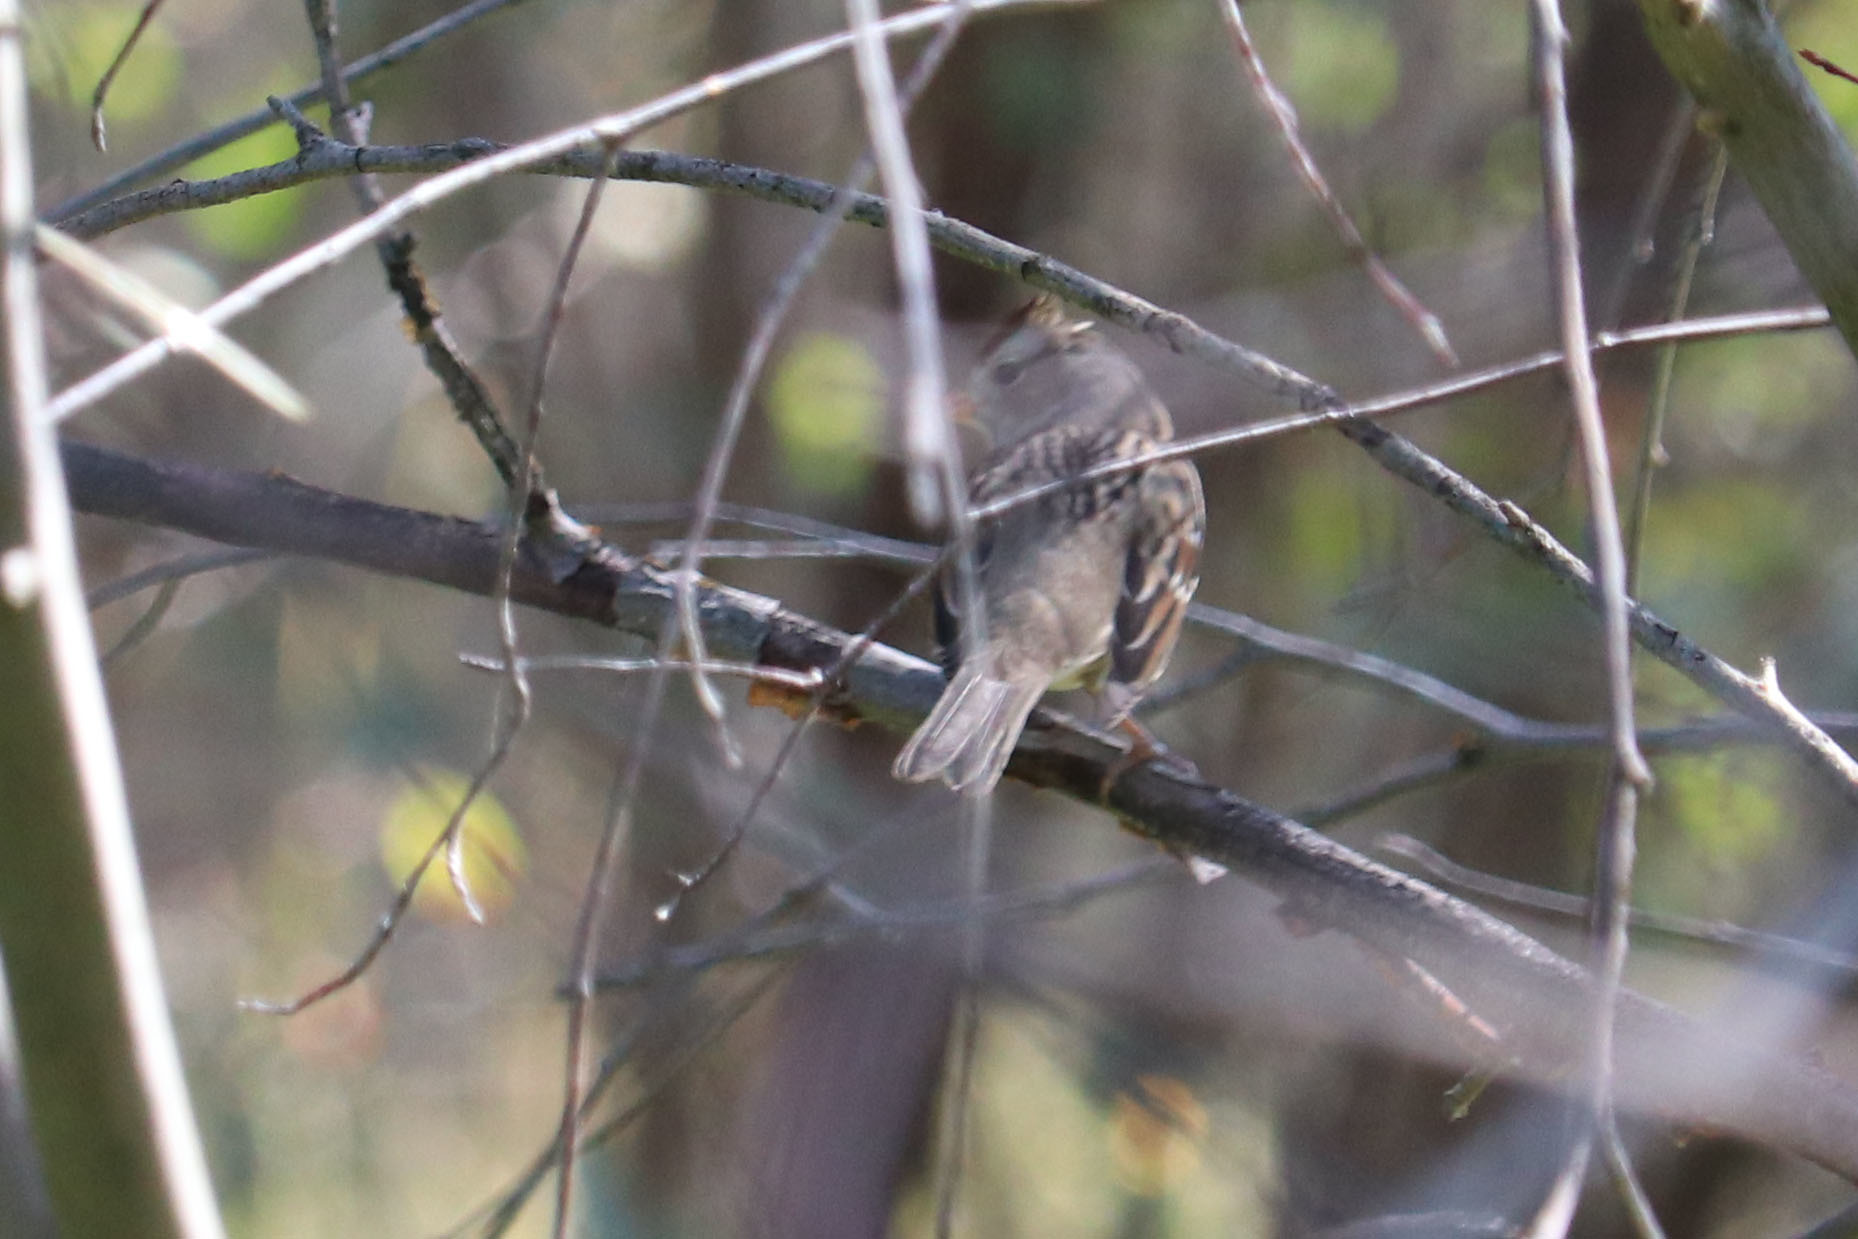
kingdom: Animalia
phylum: Chordata
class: Aves
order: Passeriformes
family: Passerellidae
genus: Zonotrichia
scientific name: Zonotrichia leucophrys
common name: White-crowned sparrow
